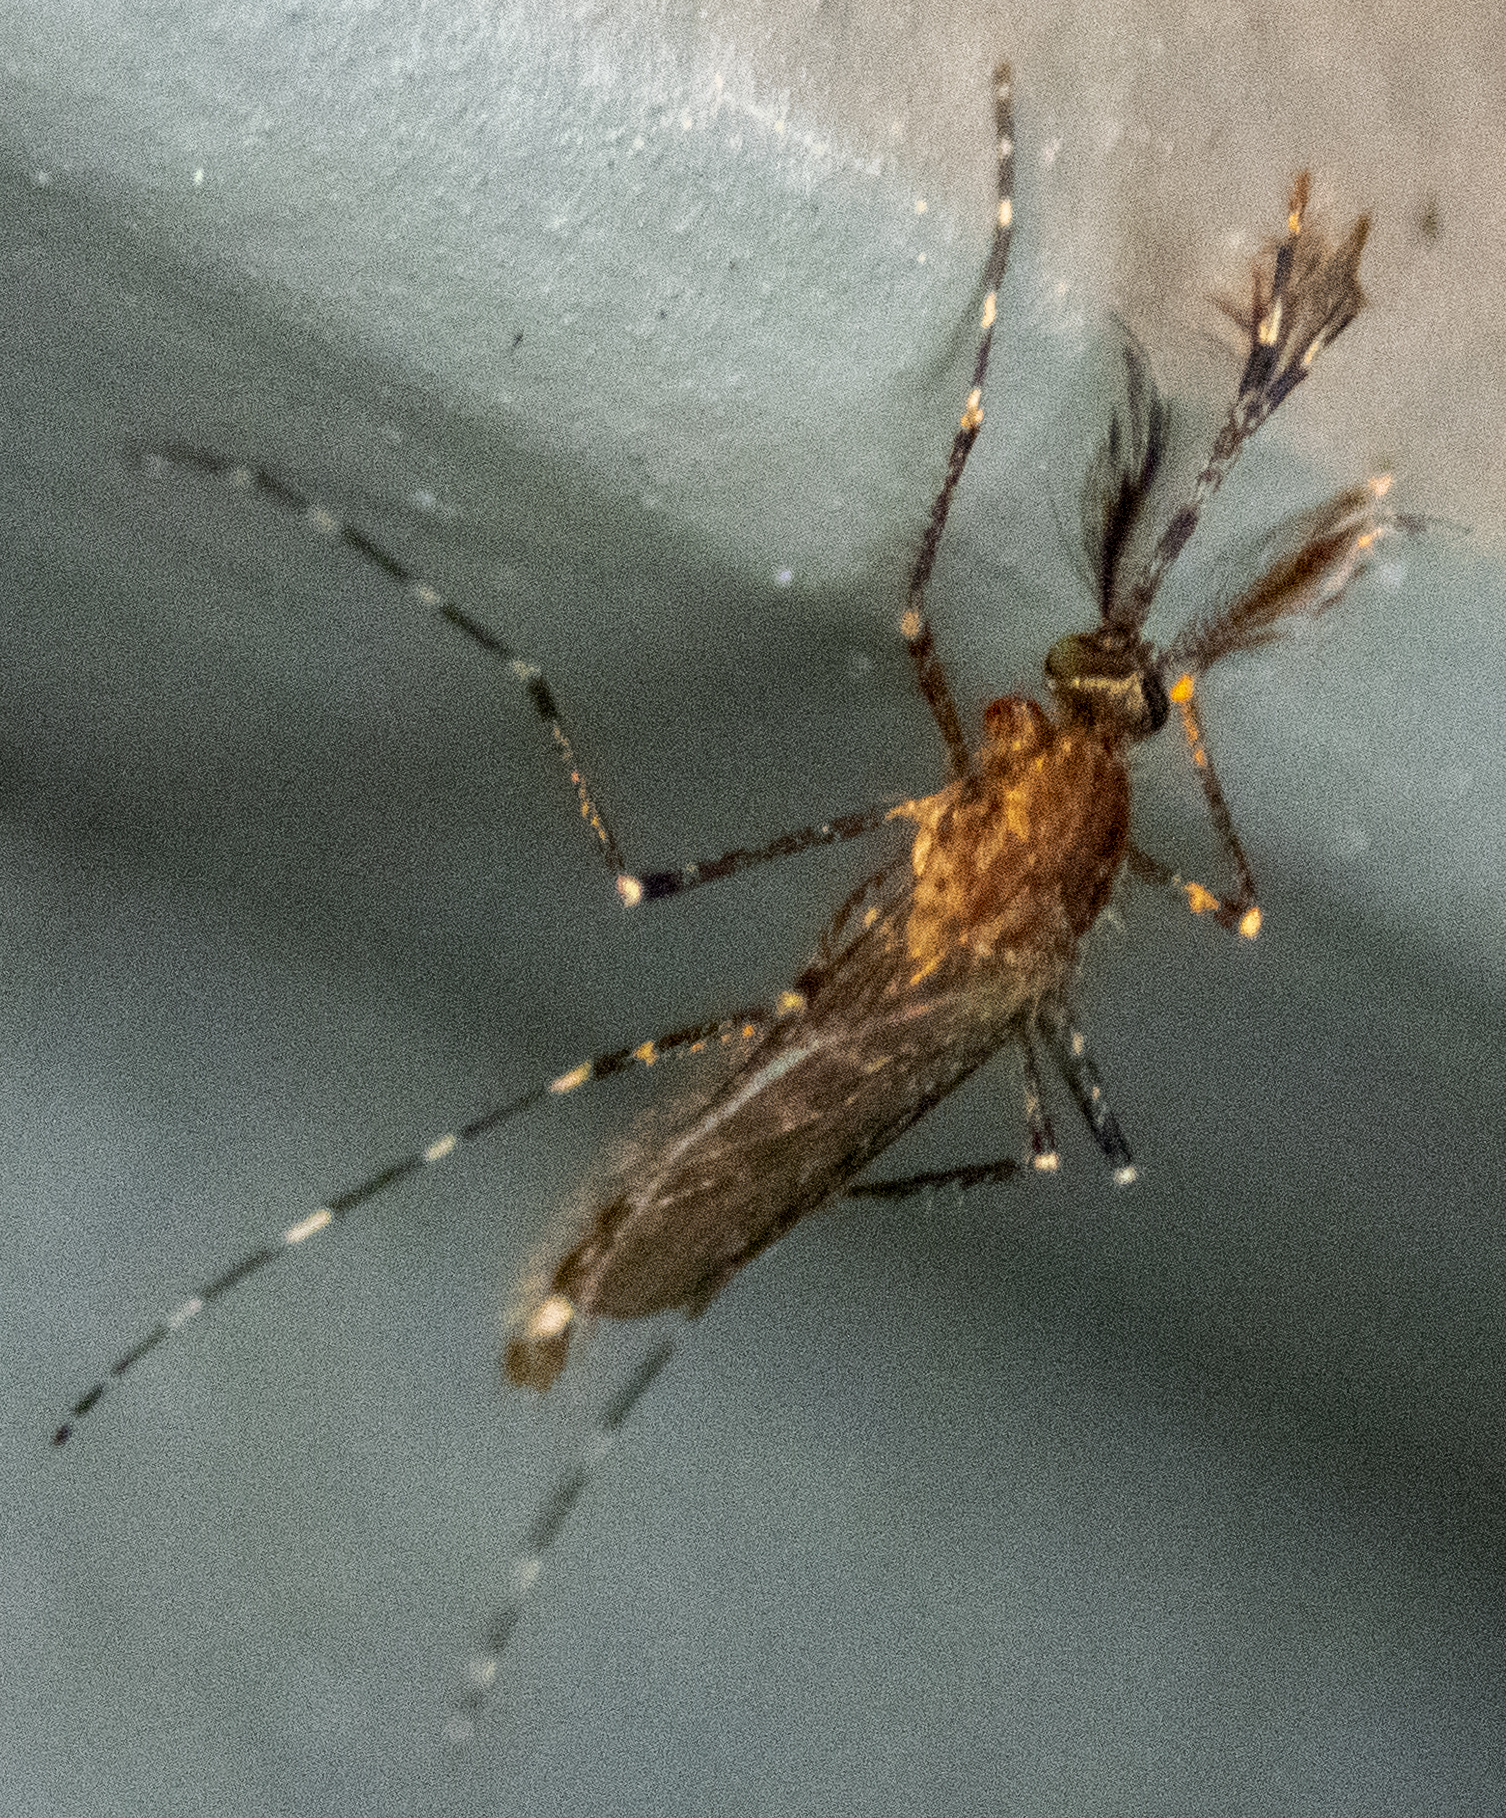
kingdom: Animalia
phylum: Arthropoda
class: Insecta
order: Diptera
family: Culicidae
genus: Coquillettidia
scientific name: Coquillettidia perturbans
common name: Cattail mosquito
